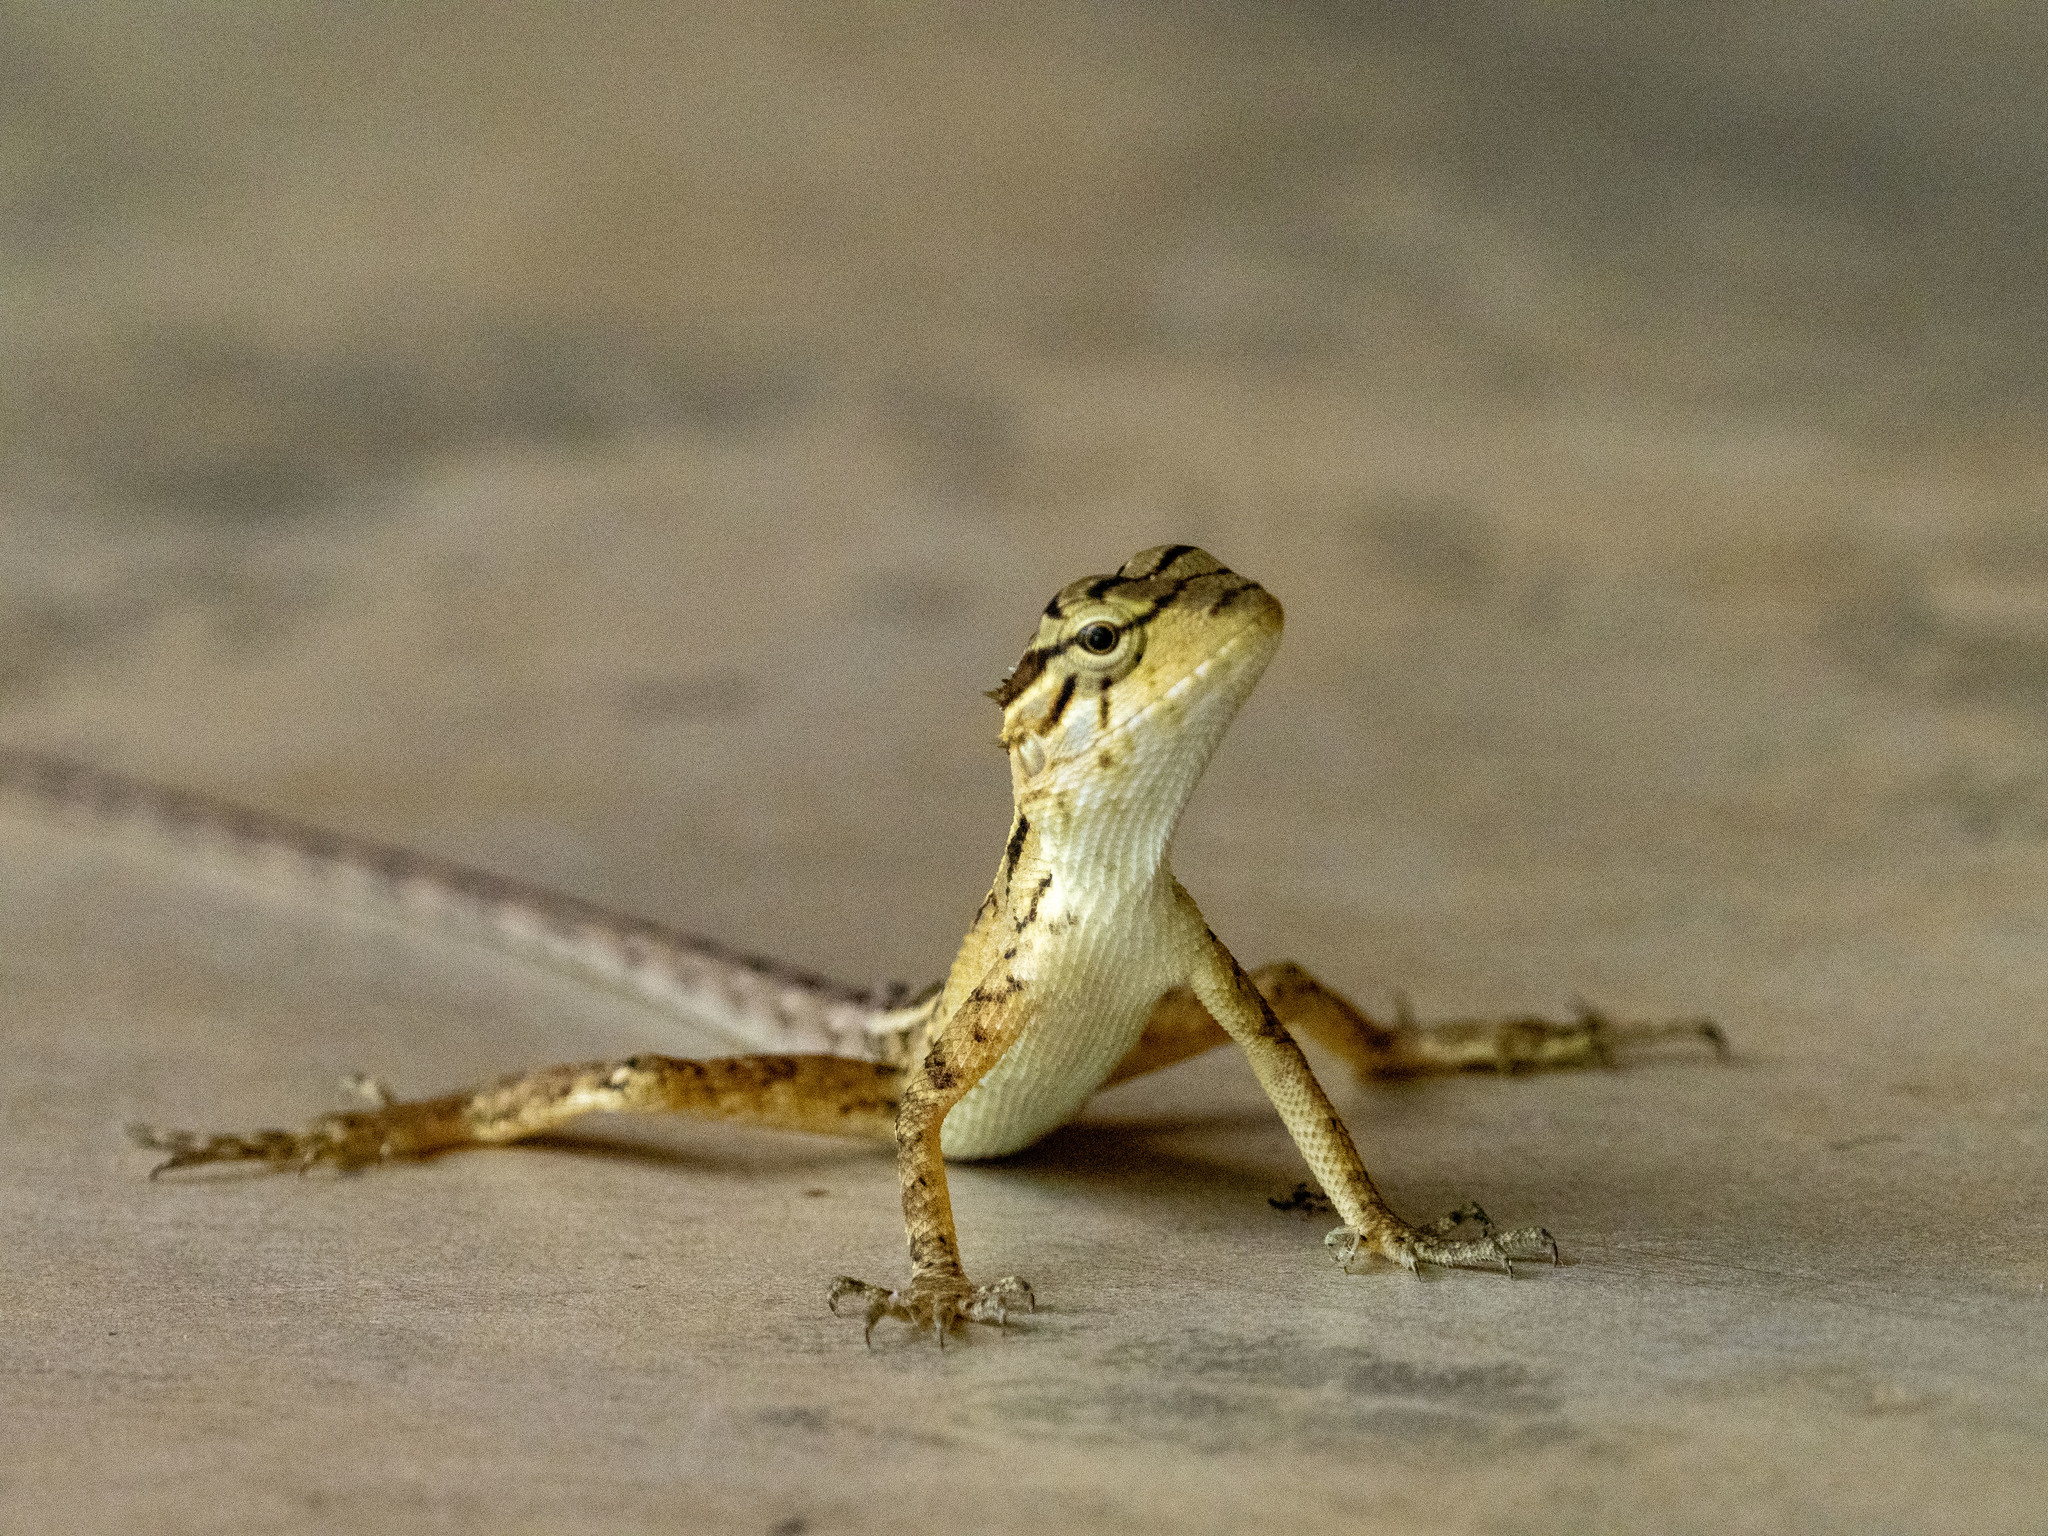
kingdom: Animalia
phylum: Chordata
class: Squamata
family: Agamidae
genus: Calotes
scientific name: Calotes versicolor
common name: Oriental garden lizard
